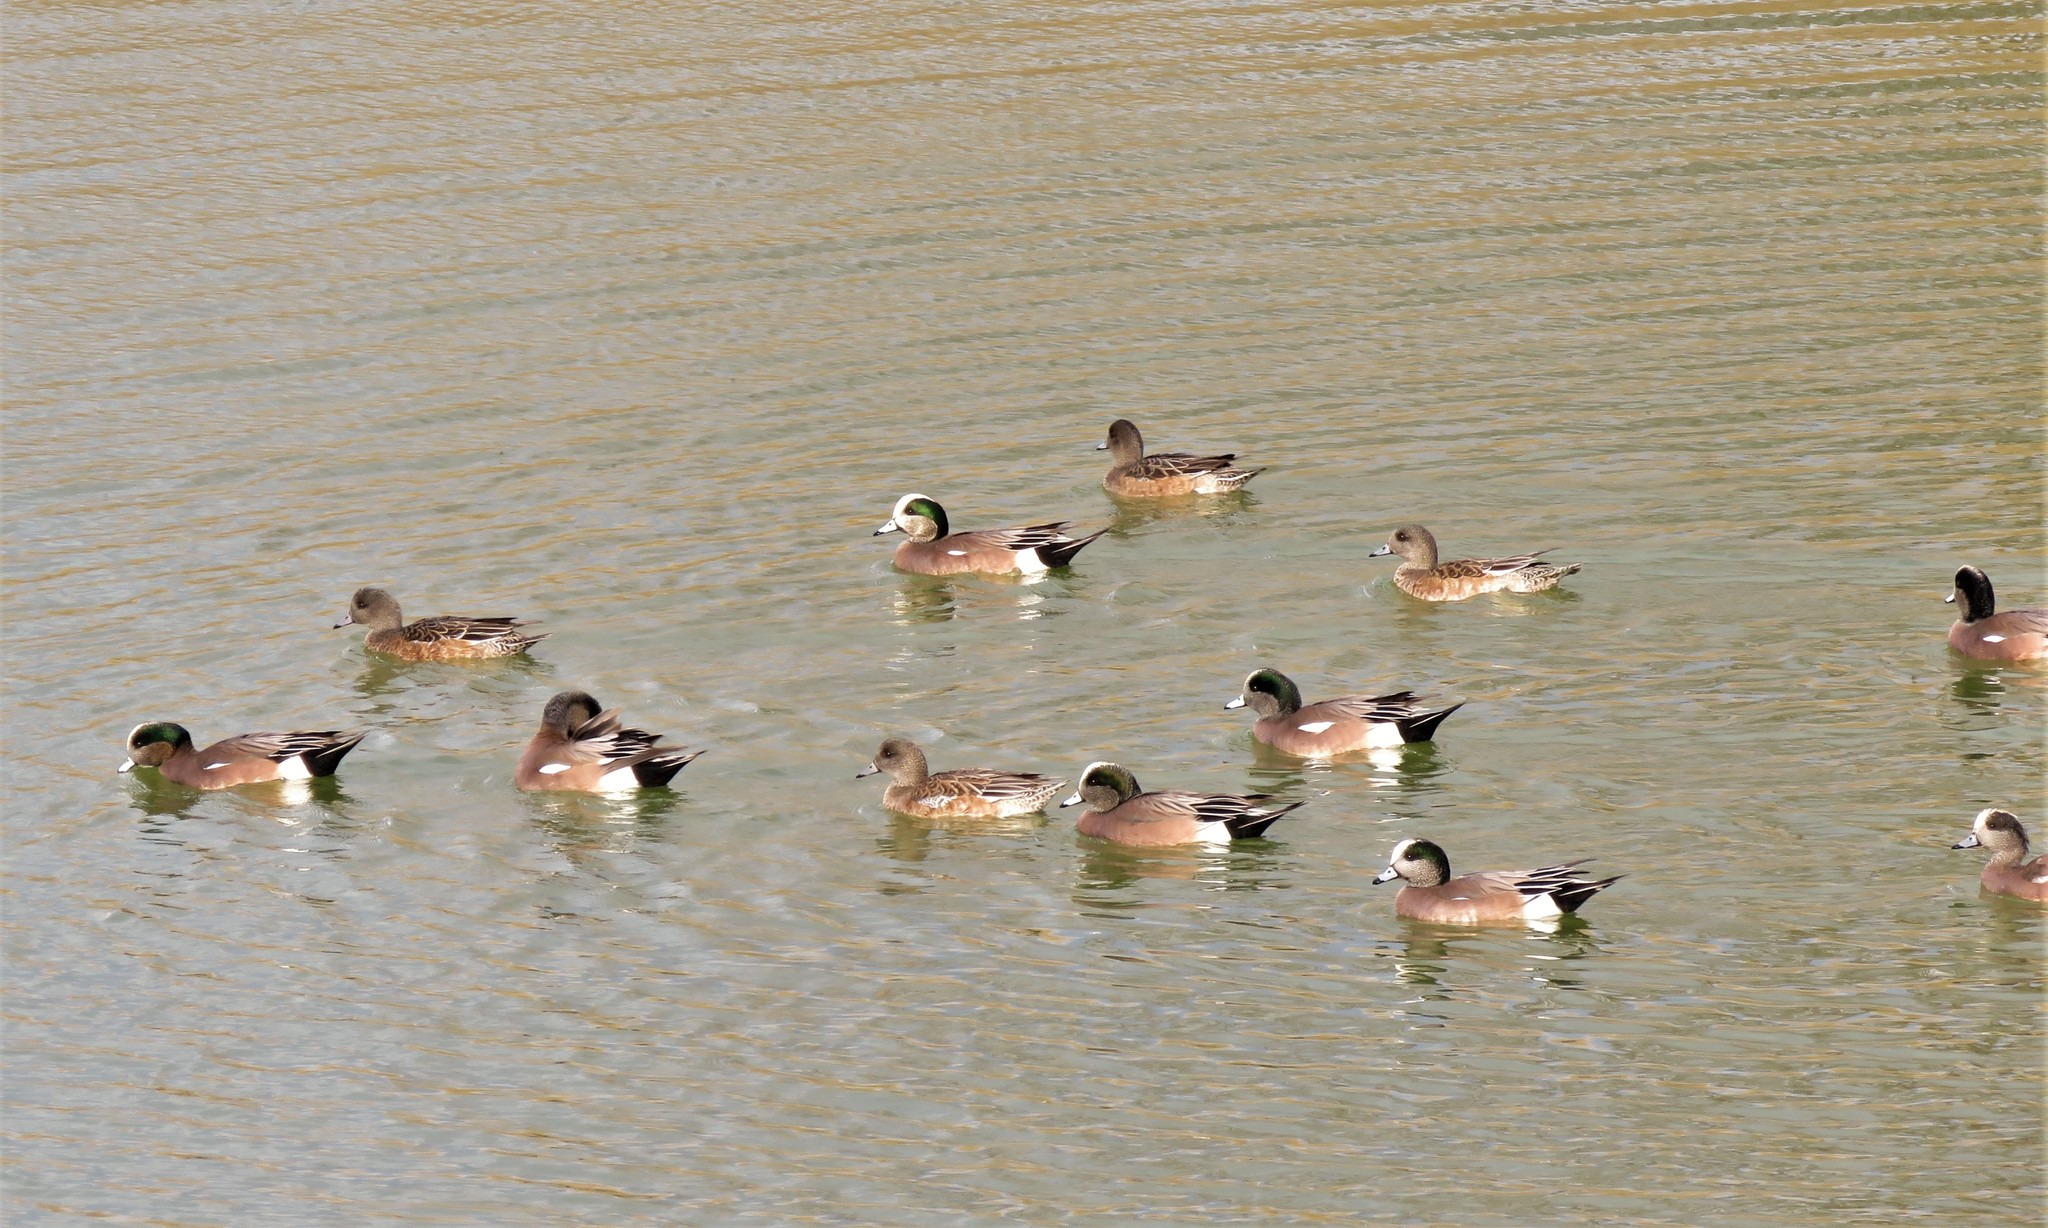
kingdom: Animalia
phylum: Chordata
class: Aves
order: Anseriformes
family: Anatidae
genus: Mareca
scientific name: Mareca americana
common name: American wigeon
